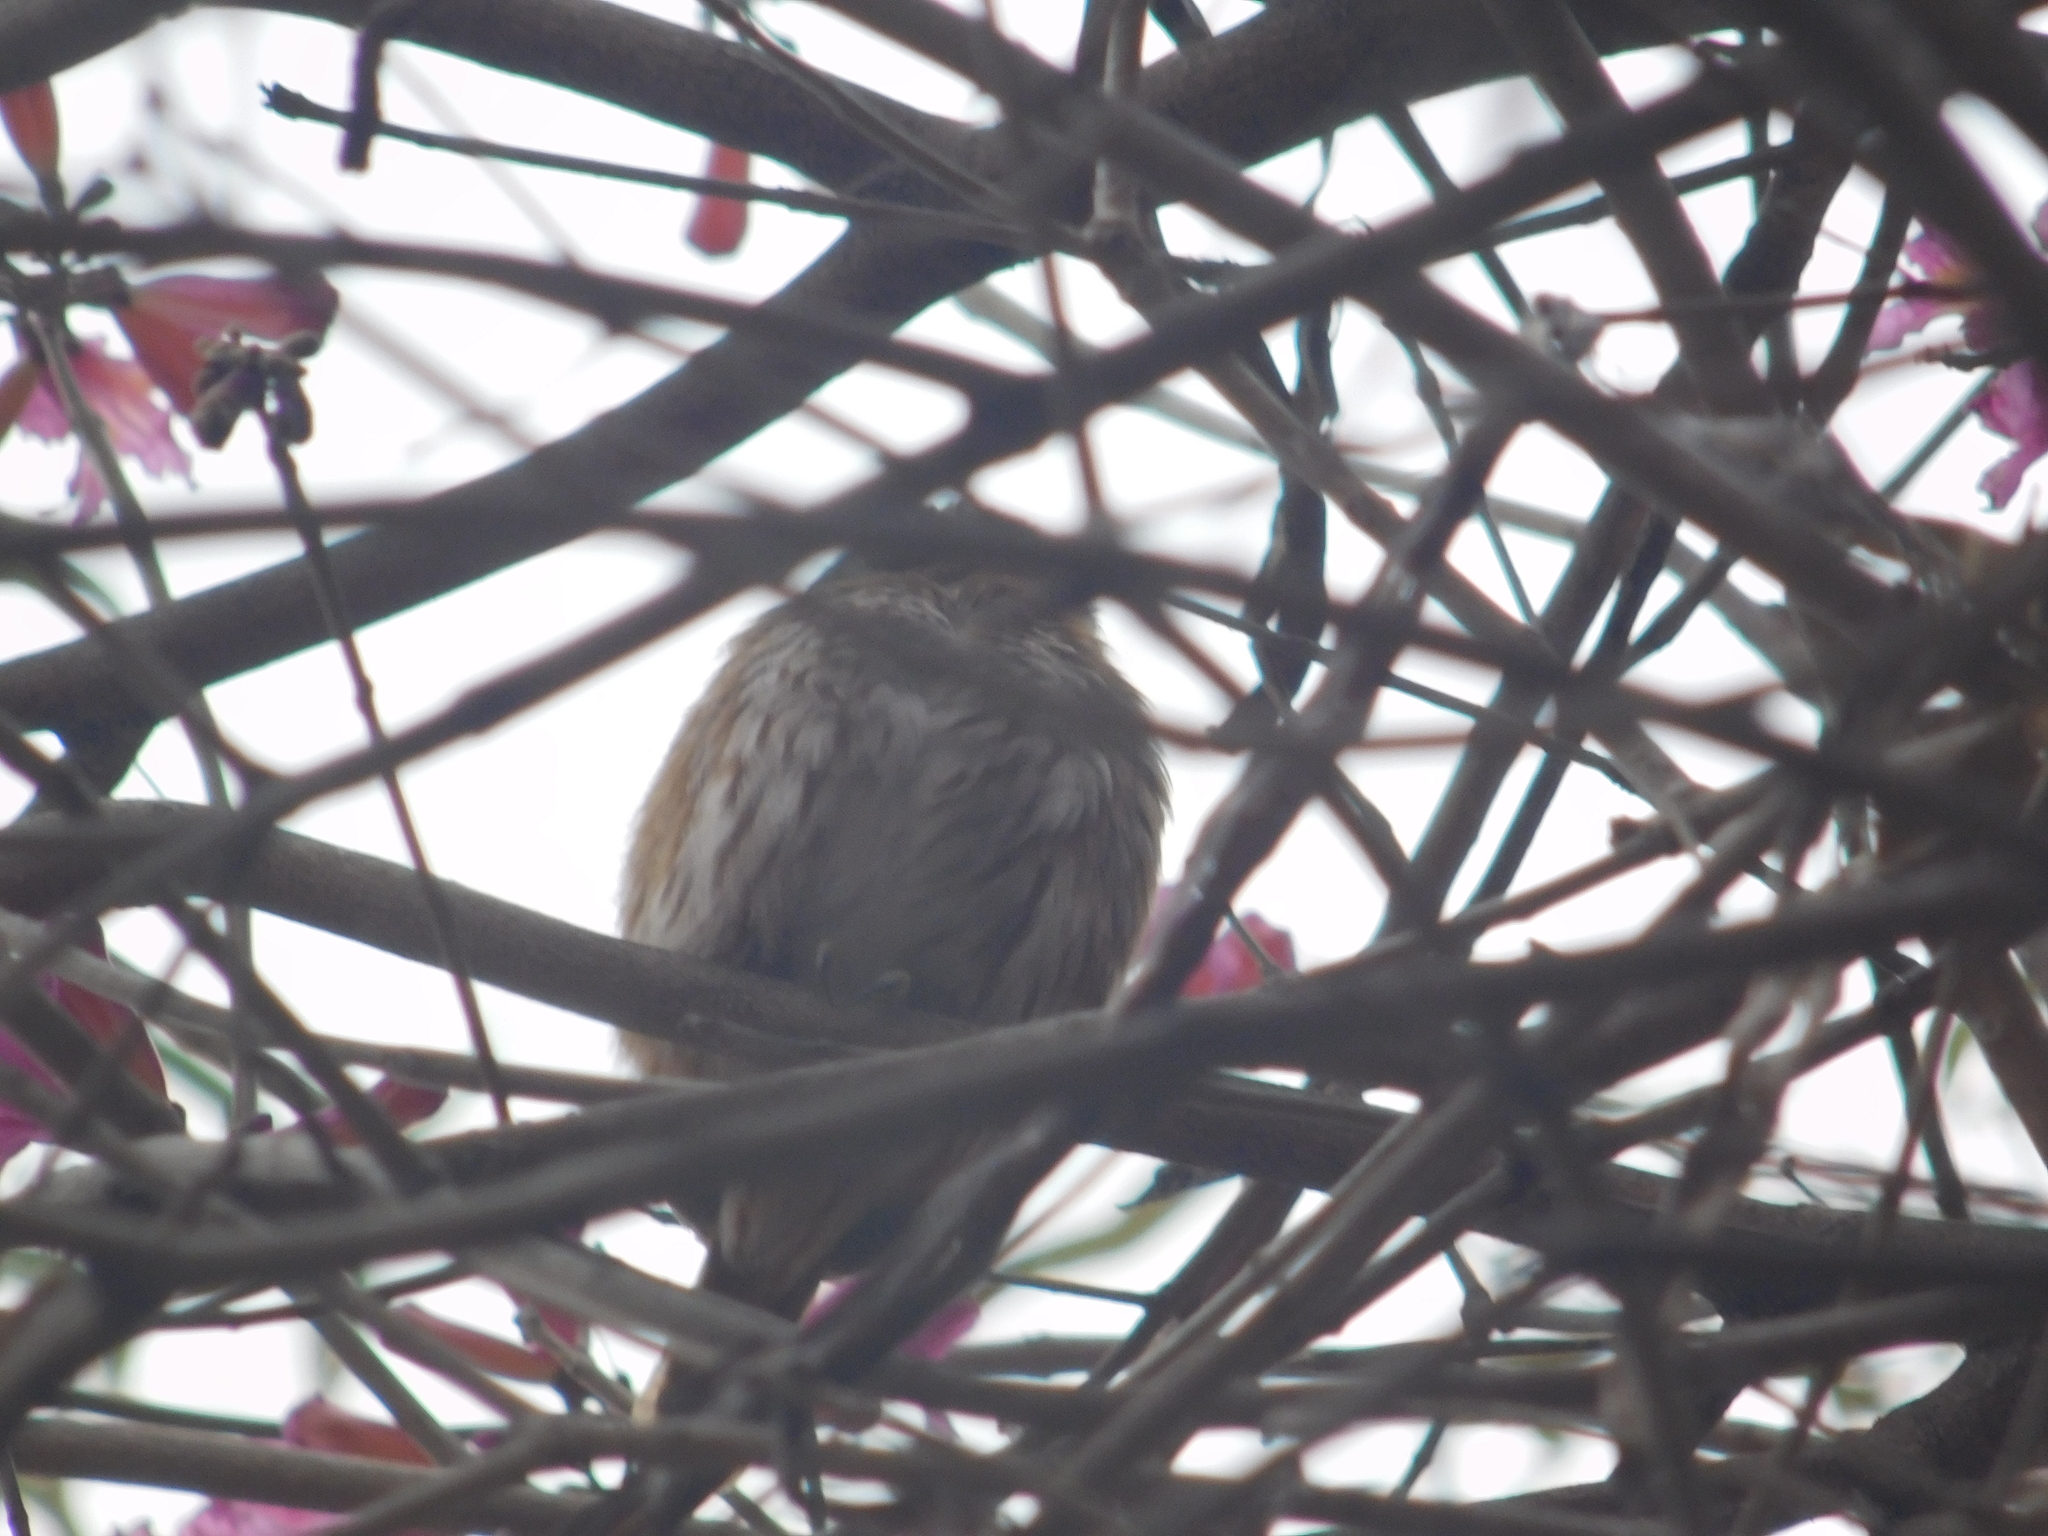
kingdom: Animalia
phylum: Chordata
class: Aves
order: Strigiformes
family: Strigidae
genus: Glaucidium
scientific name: Glaucidium brasilianum
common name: Ferruginous pygmy-owl
